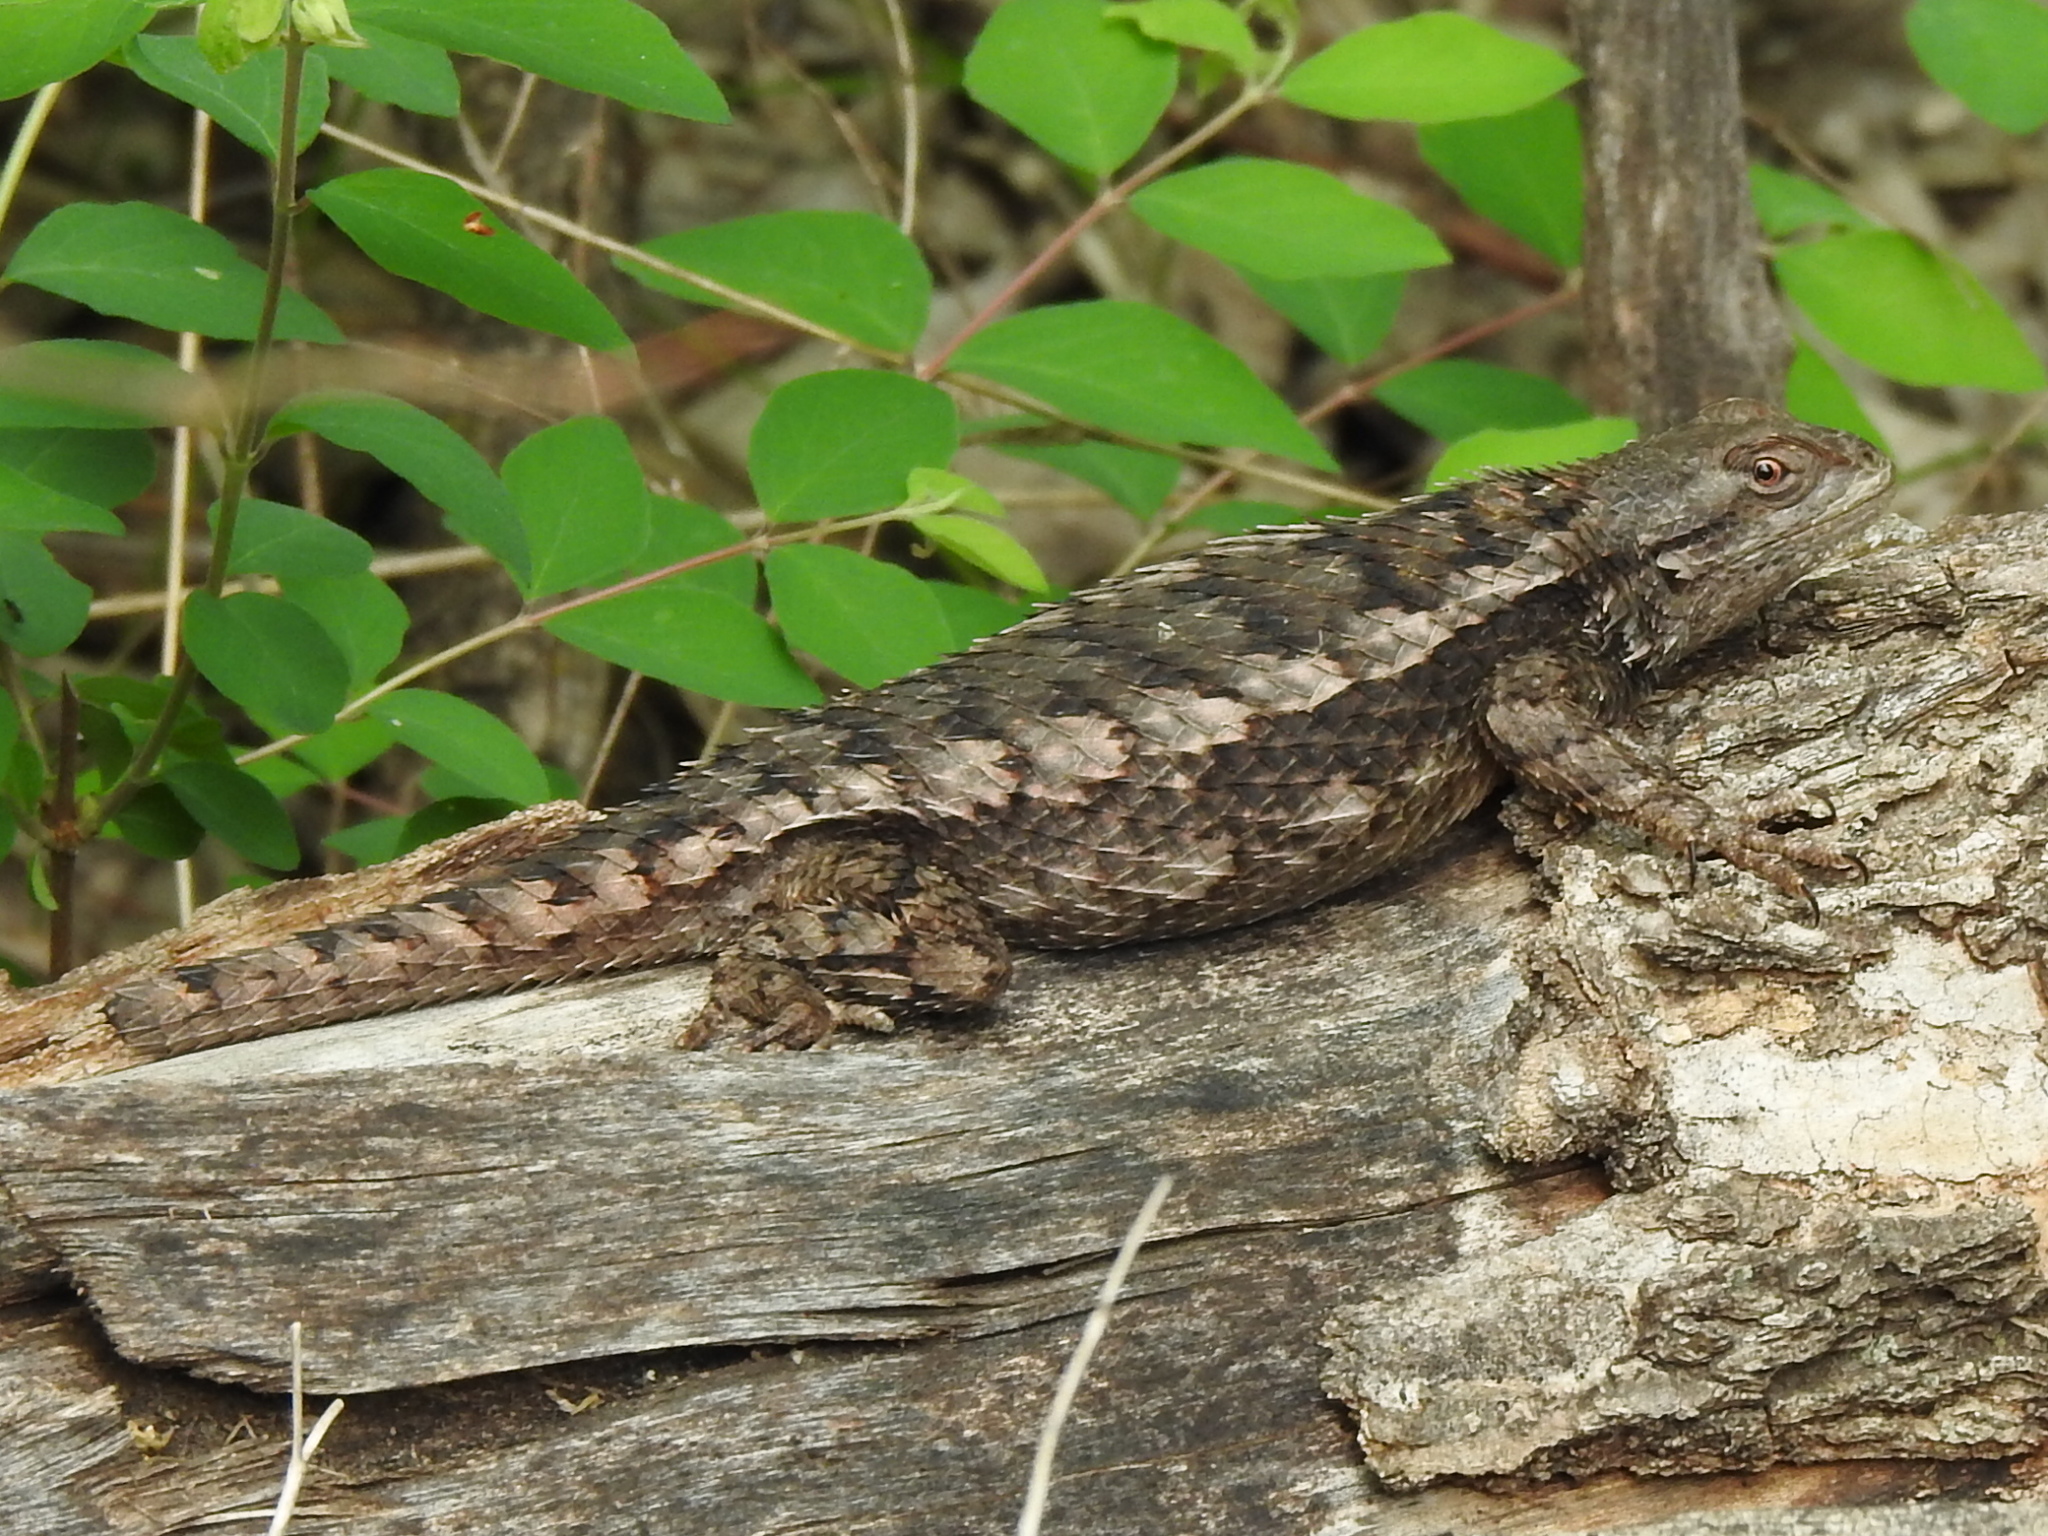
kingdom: Animalia
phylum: Chordata
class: Squamata
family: Phrynosomatidae
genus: Sceloporus
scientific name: Sceloporus olivaceus
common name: Texas spiny lizard
